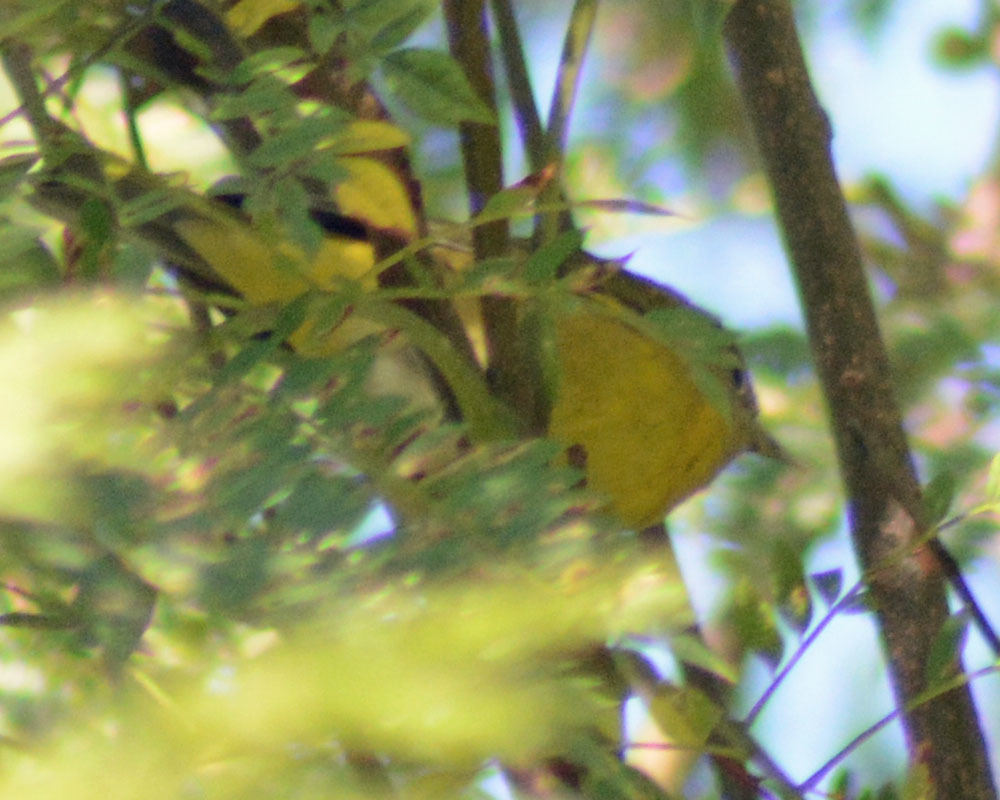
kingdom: Animalia
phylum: Chordata
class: Aves
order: Passeriformes
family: Parulidae
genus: Leiothlypis
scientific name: Leiothlypis ruficapilla
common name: Nashville warbler
